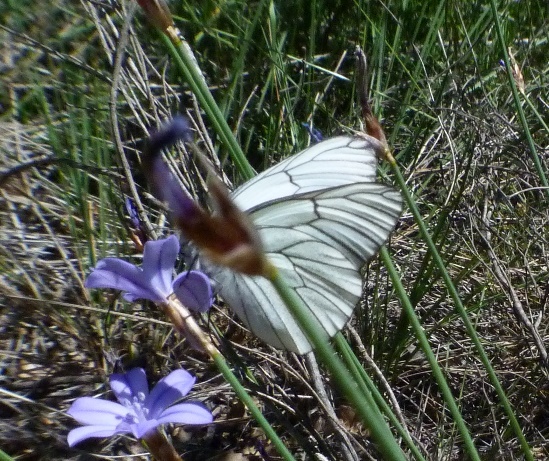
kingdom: Animalia
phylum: Arthropoda
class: Insecta
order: Lepidoptera
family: Pieridae
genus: Aporia
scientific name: Aporia crataegi
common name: Black-veined white
